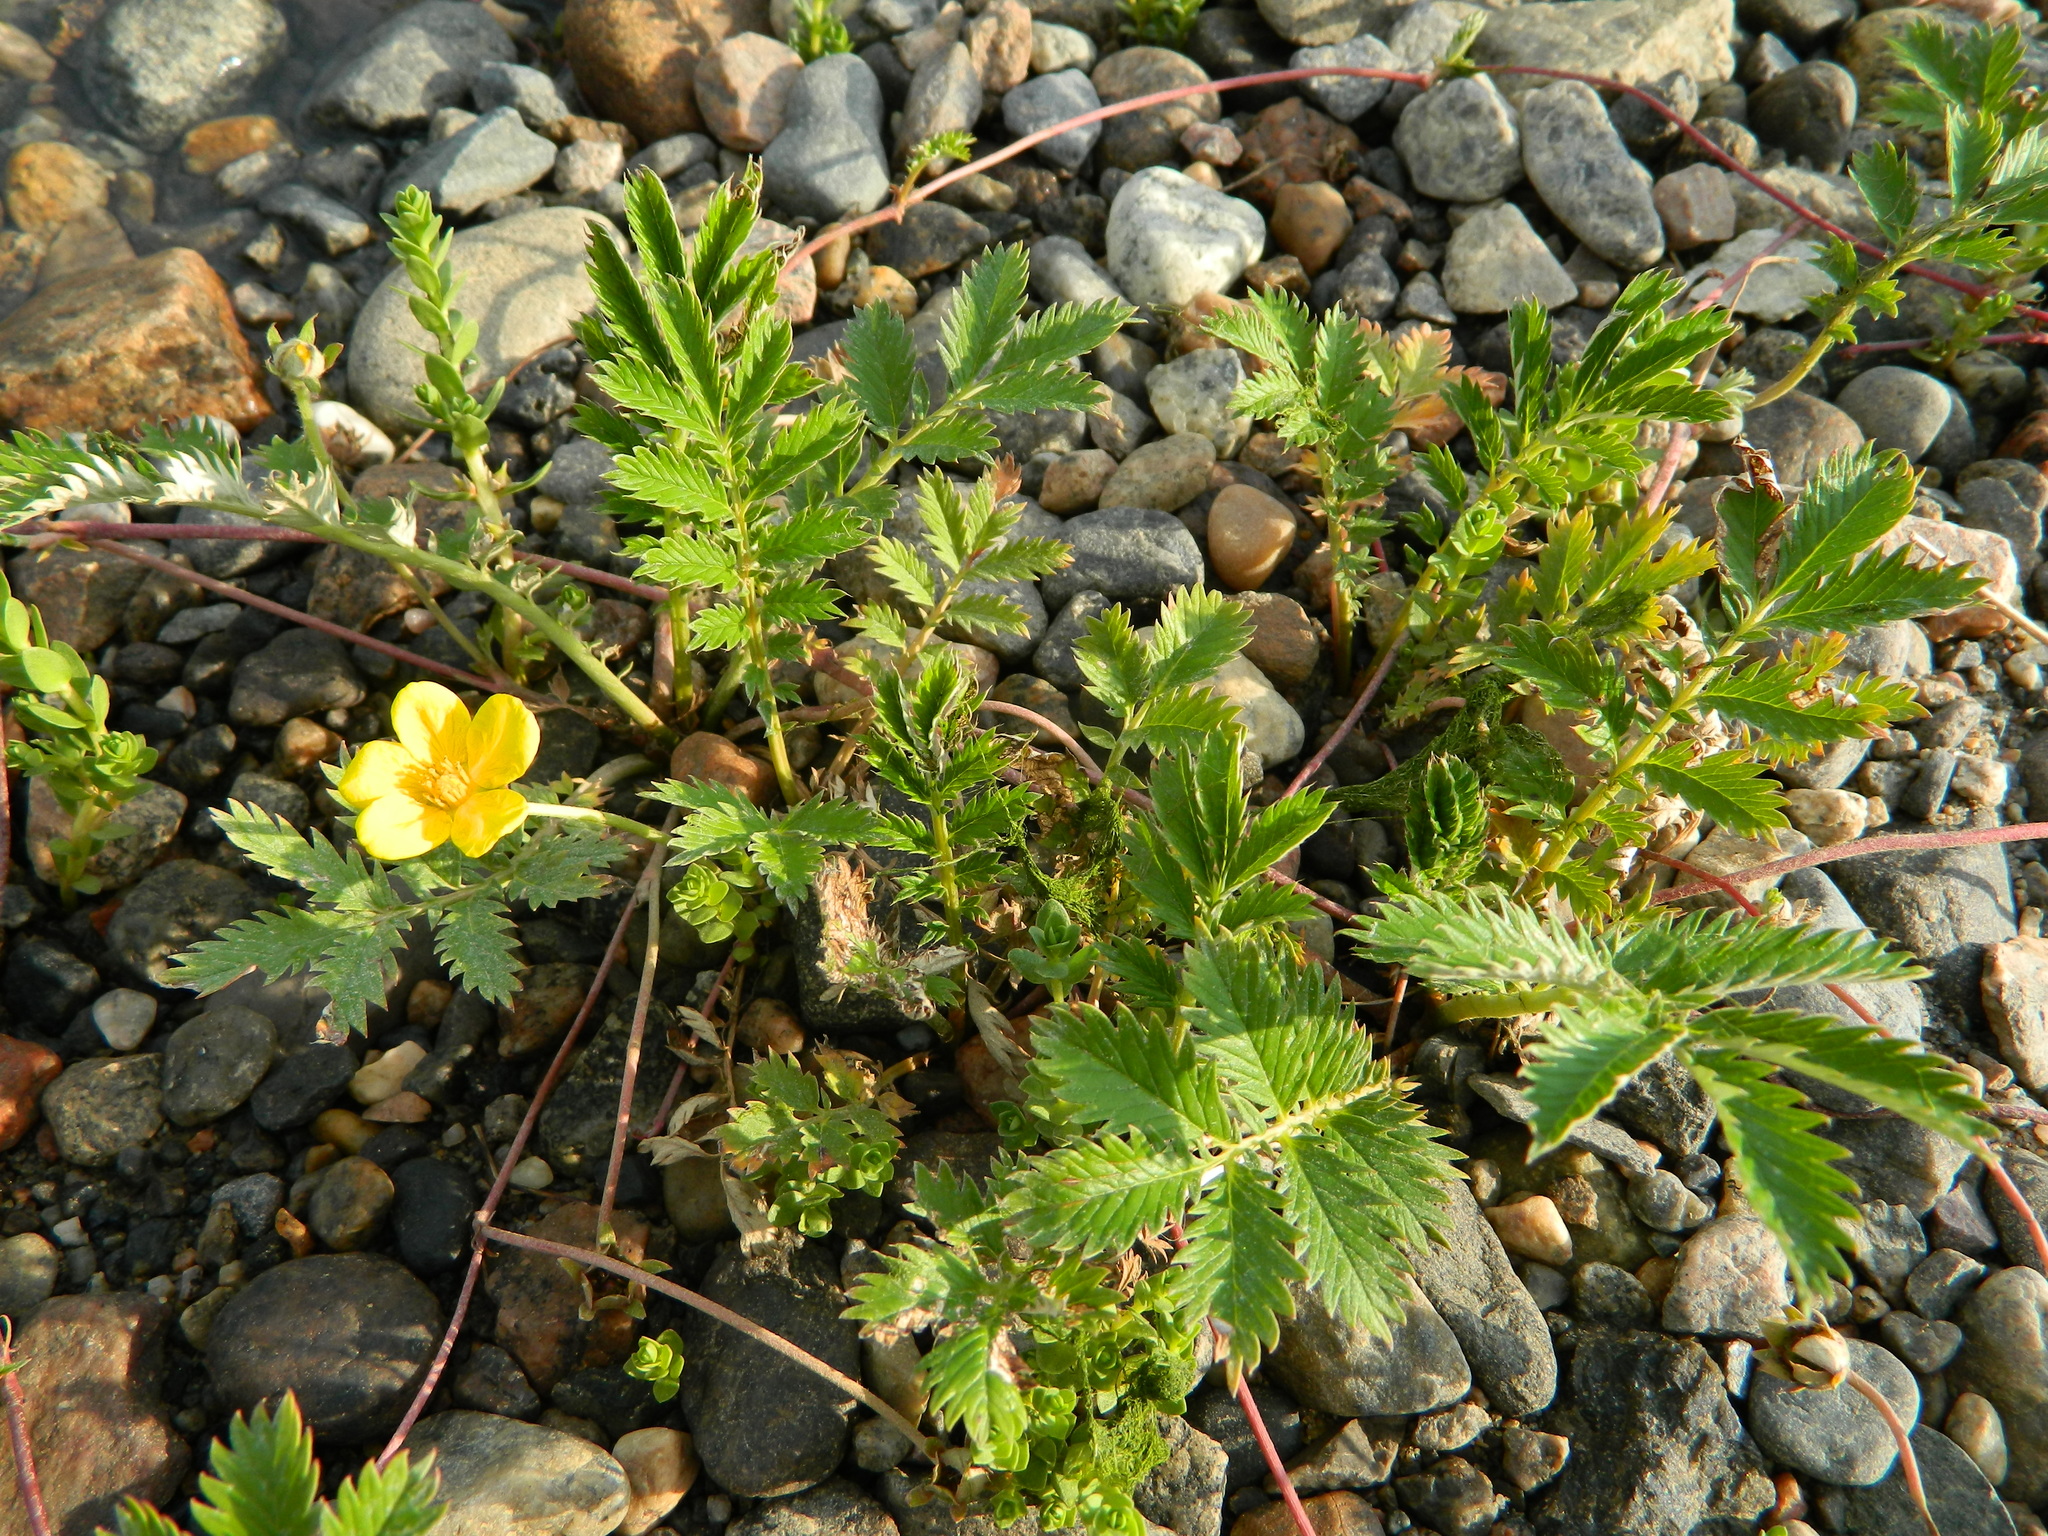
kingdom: Plantae
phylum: Tracheophyta
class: Magnoliopsida
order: Rosales
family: Rosaceae
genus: Argentina
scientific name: Argentina anserina
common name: Common silverweed
